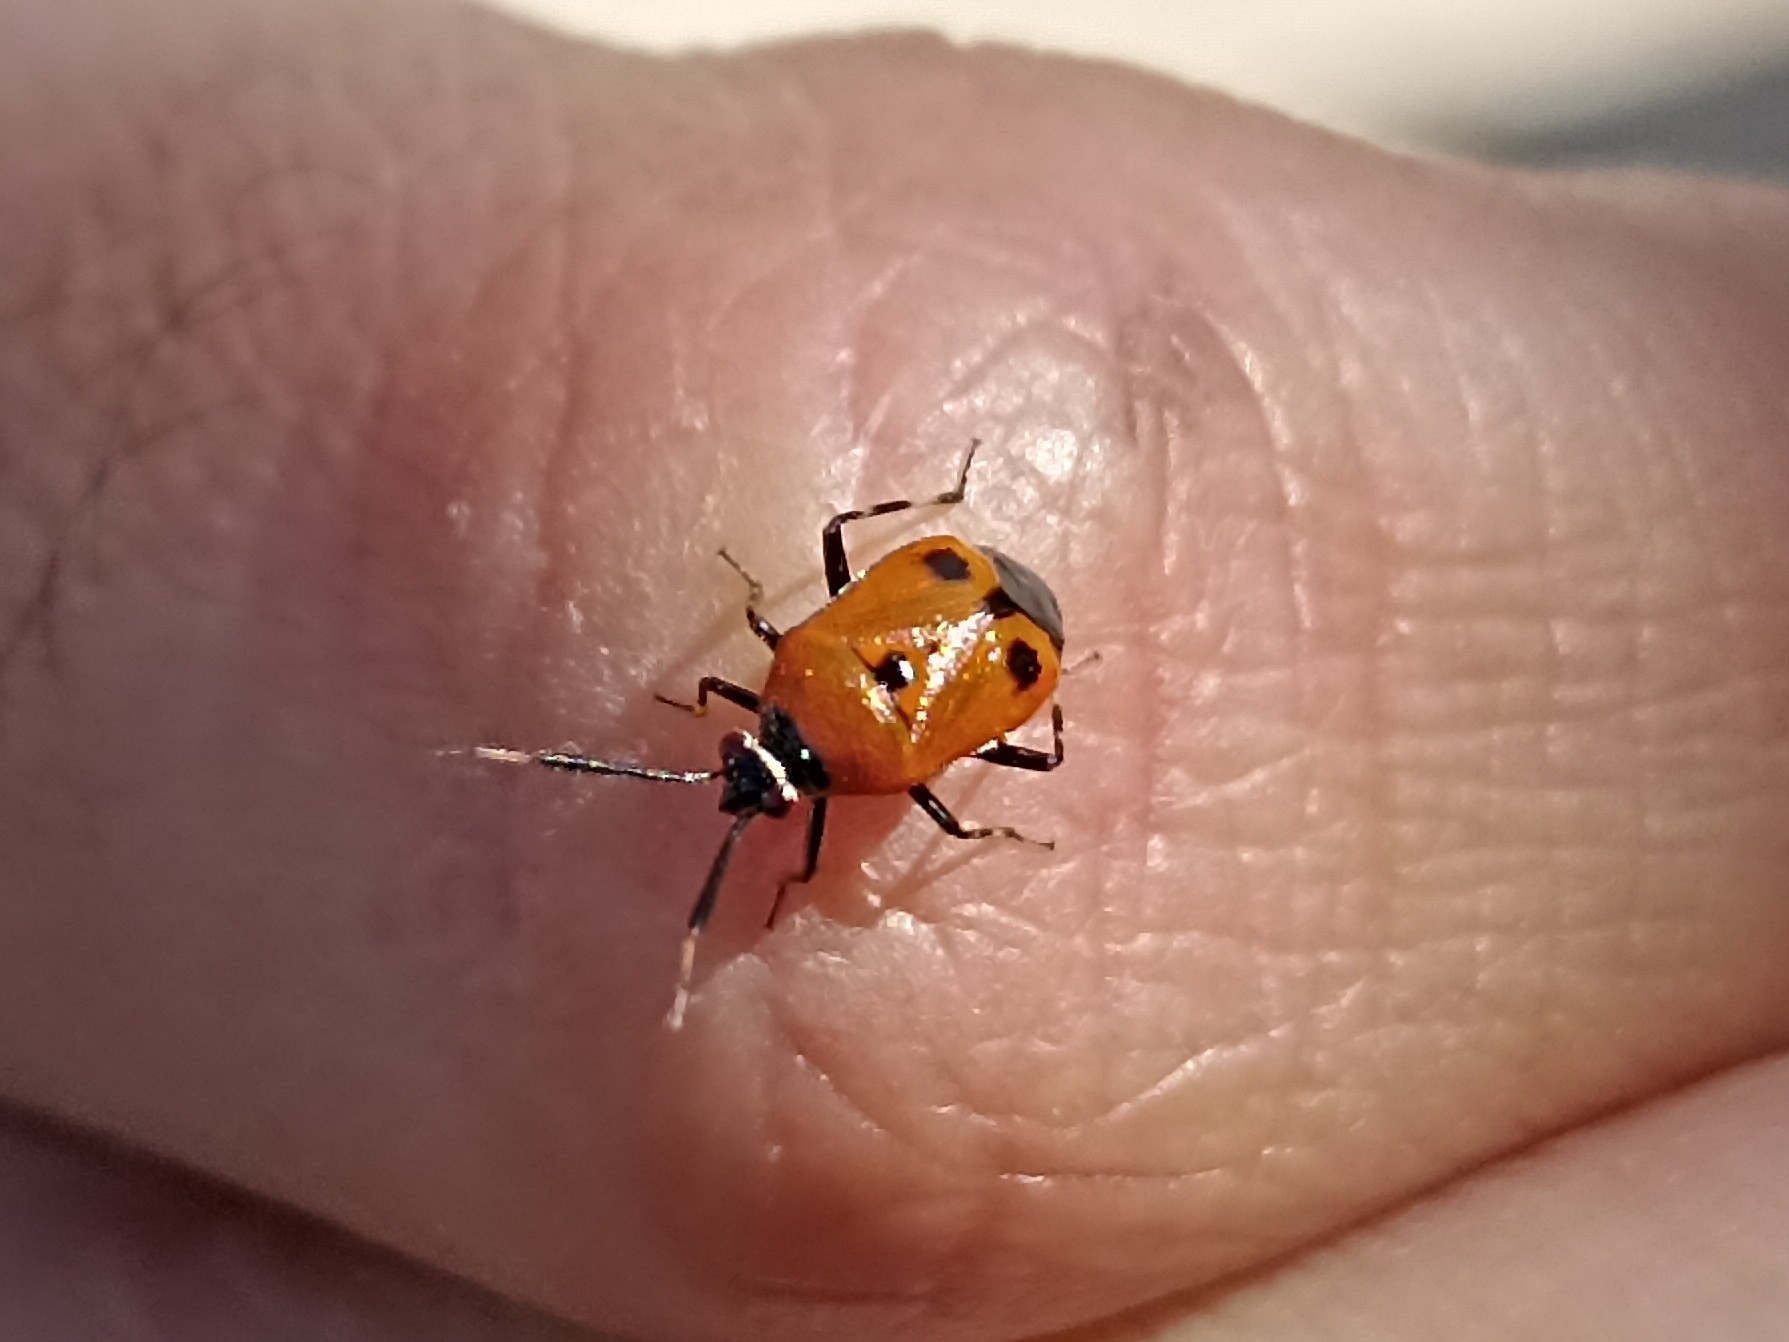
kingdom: Animalia
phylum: Arthropoda
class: Insecta
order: Hemiptera
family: Miridae
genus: Deraeocoris
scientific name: Deraeocoris punctum
